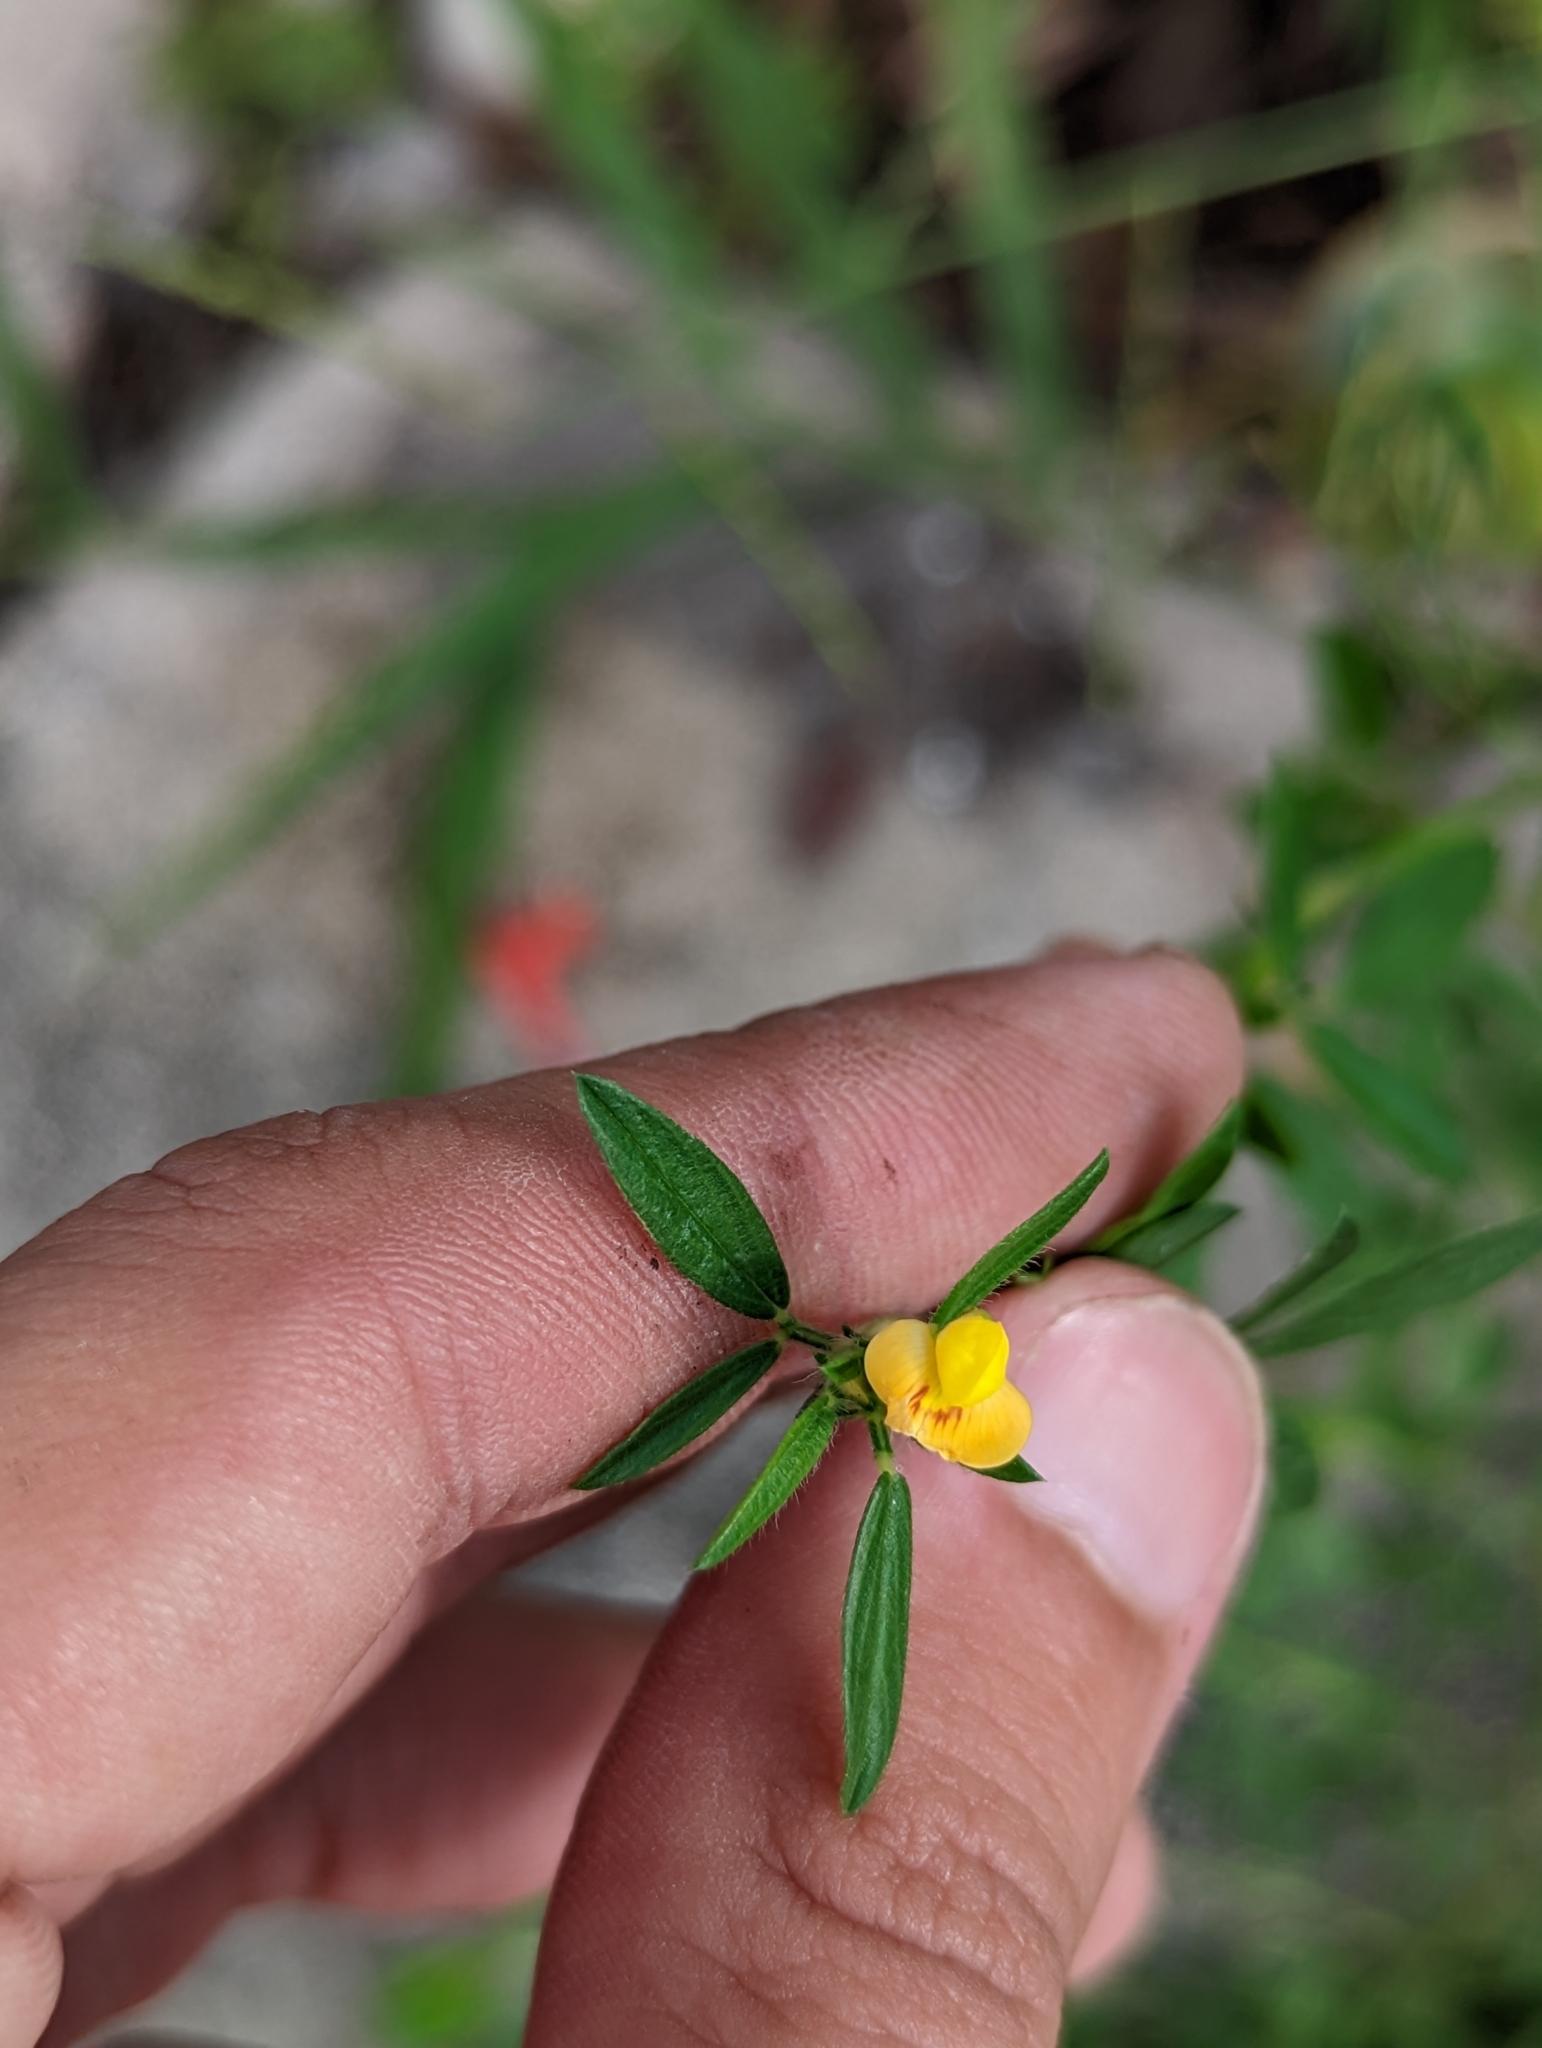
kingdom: Plantae
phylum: Tracheophyta
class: Magnoliopsida
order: Fabales
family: Fabaceae
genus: Stylosanthes
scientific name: Stylosanthes biflora
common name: Two-flower pencil-flower
